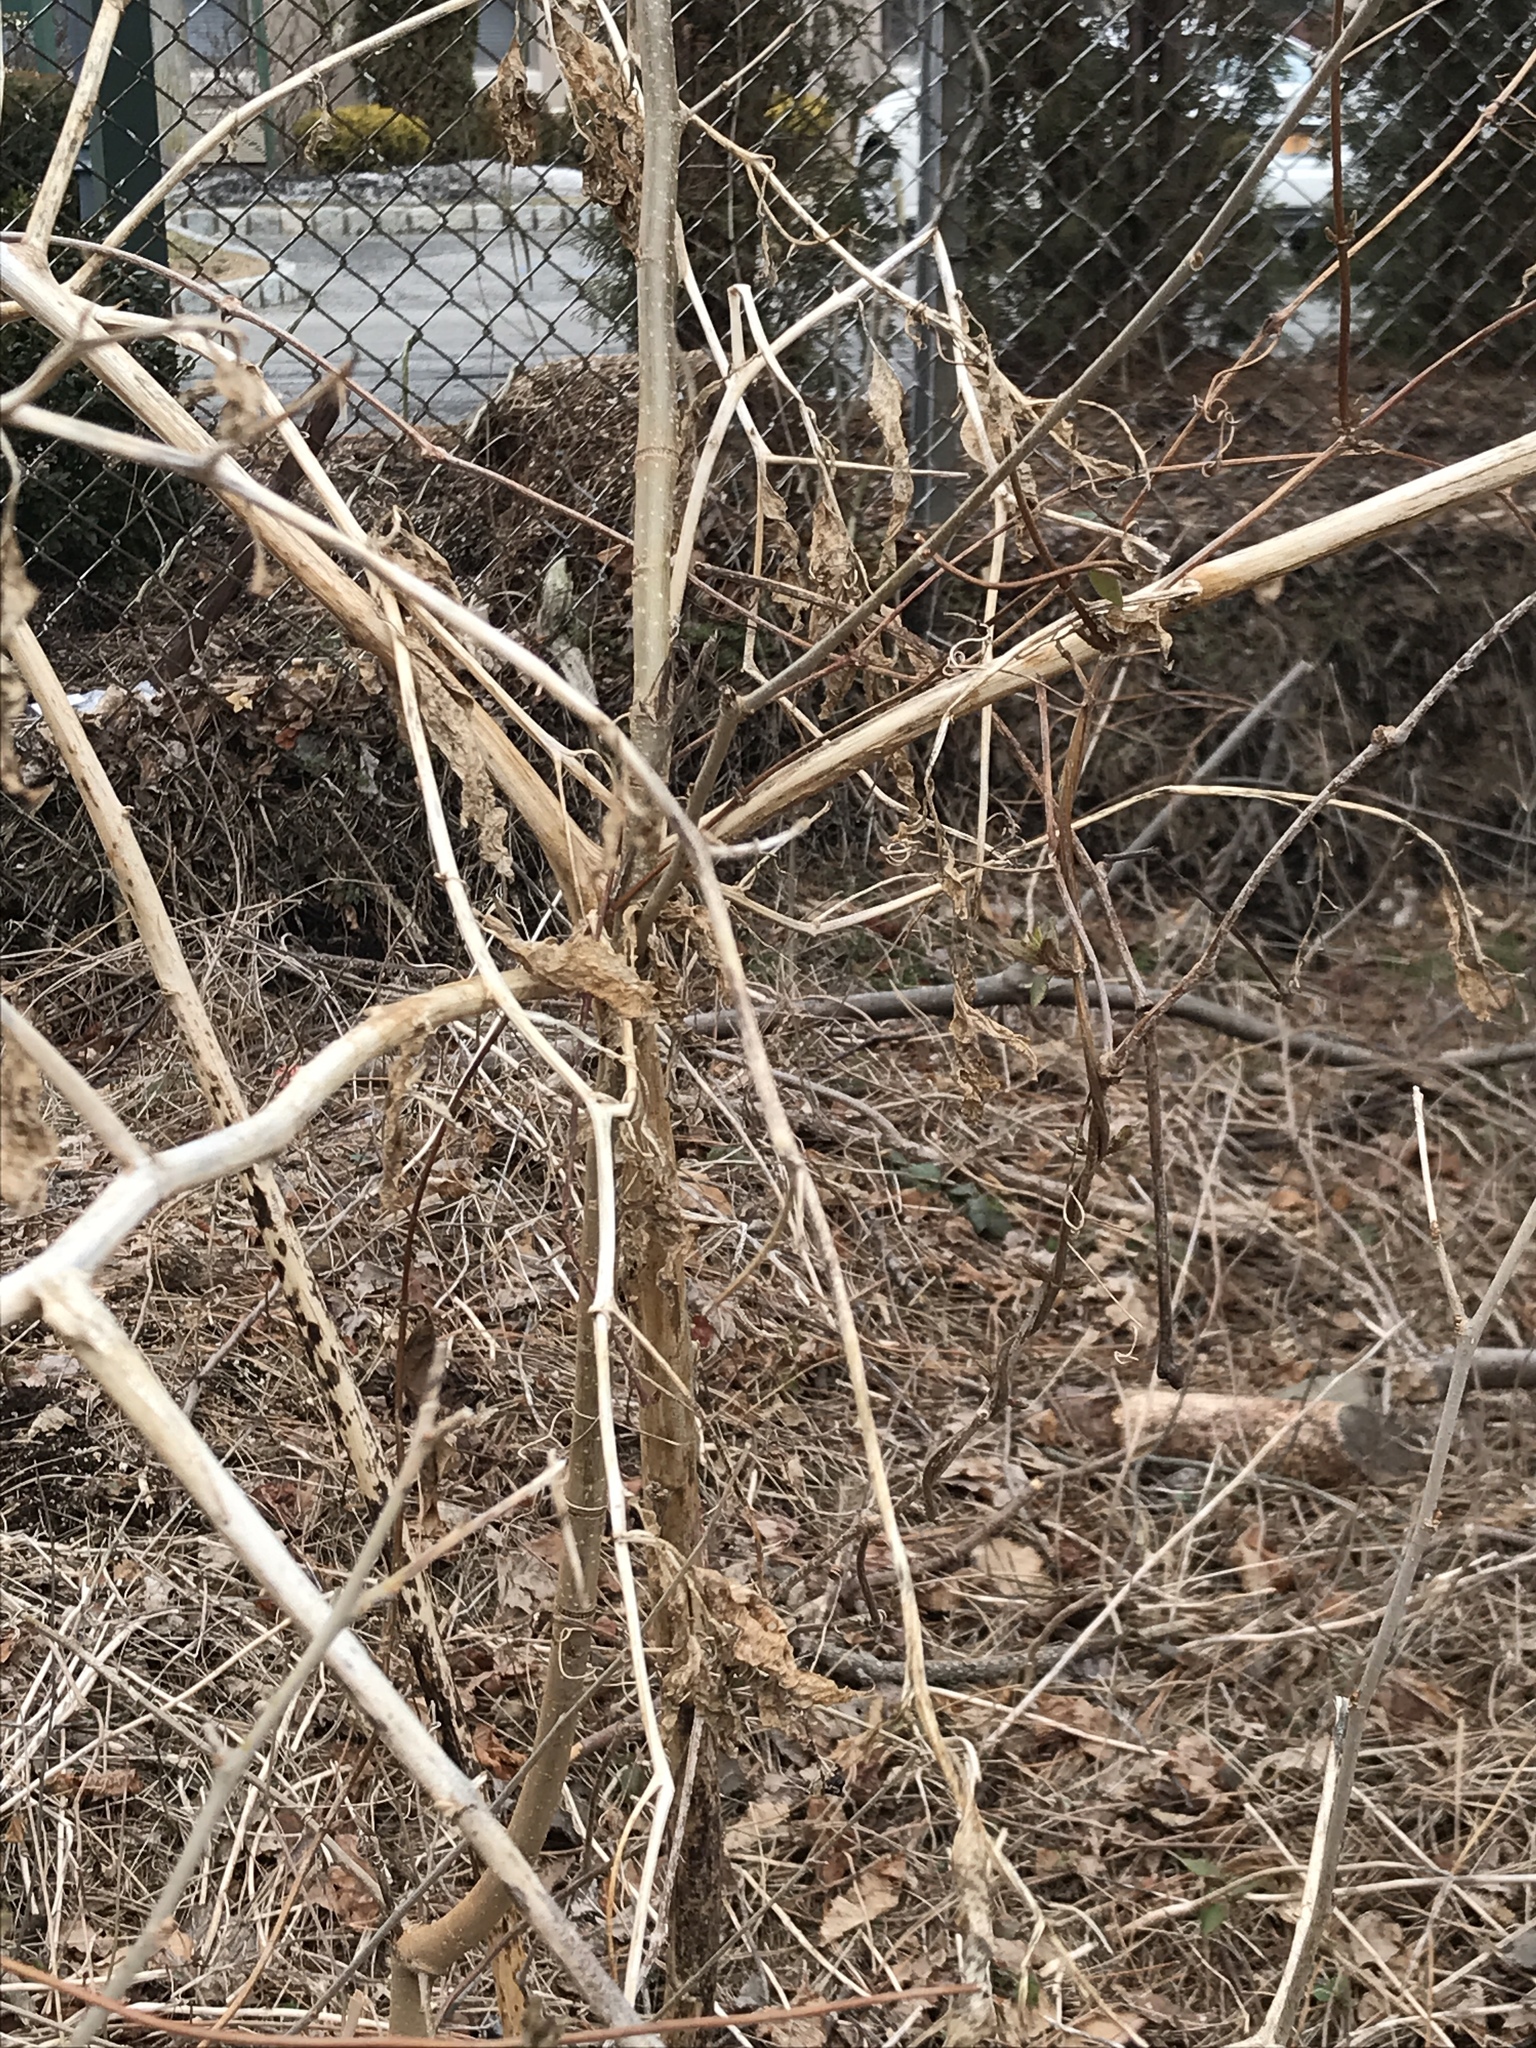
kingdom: Plantae
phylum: Tracheophyta
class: Magnoliopsida
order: Caryophyllales
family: Phytolaccaceae
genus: Phytolacca
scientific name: Phytolacca americana
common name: American pokeweed
